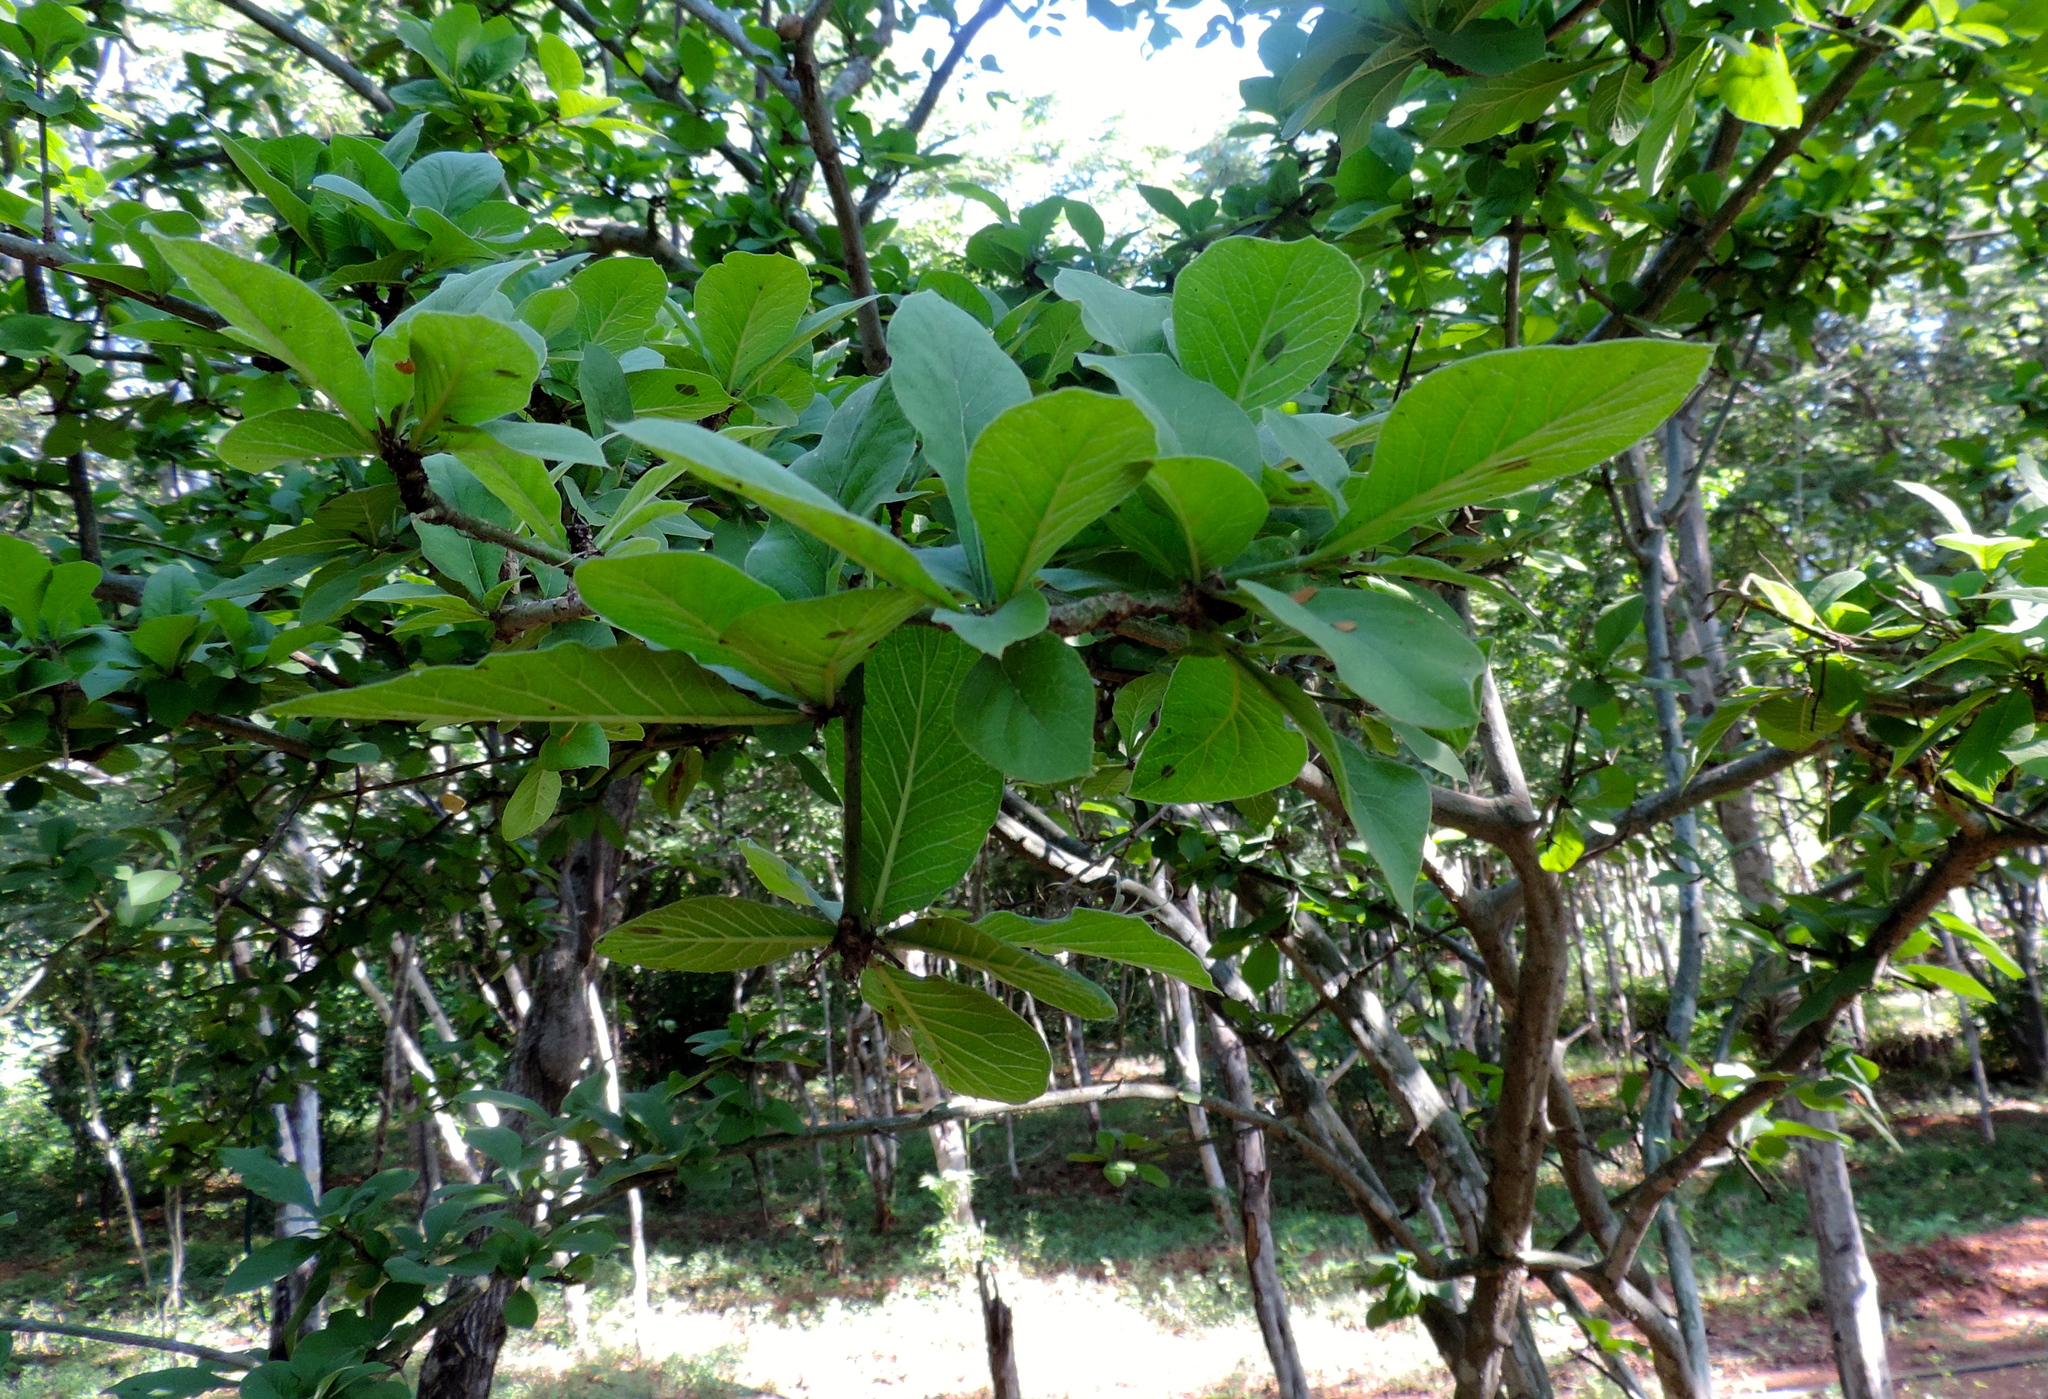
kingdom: Plantae
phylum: Tracheophyta
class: Magnoliopsida
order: Gentianales
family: Rubiaceae
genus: Randia
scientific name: Randia echinocarpa
